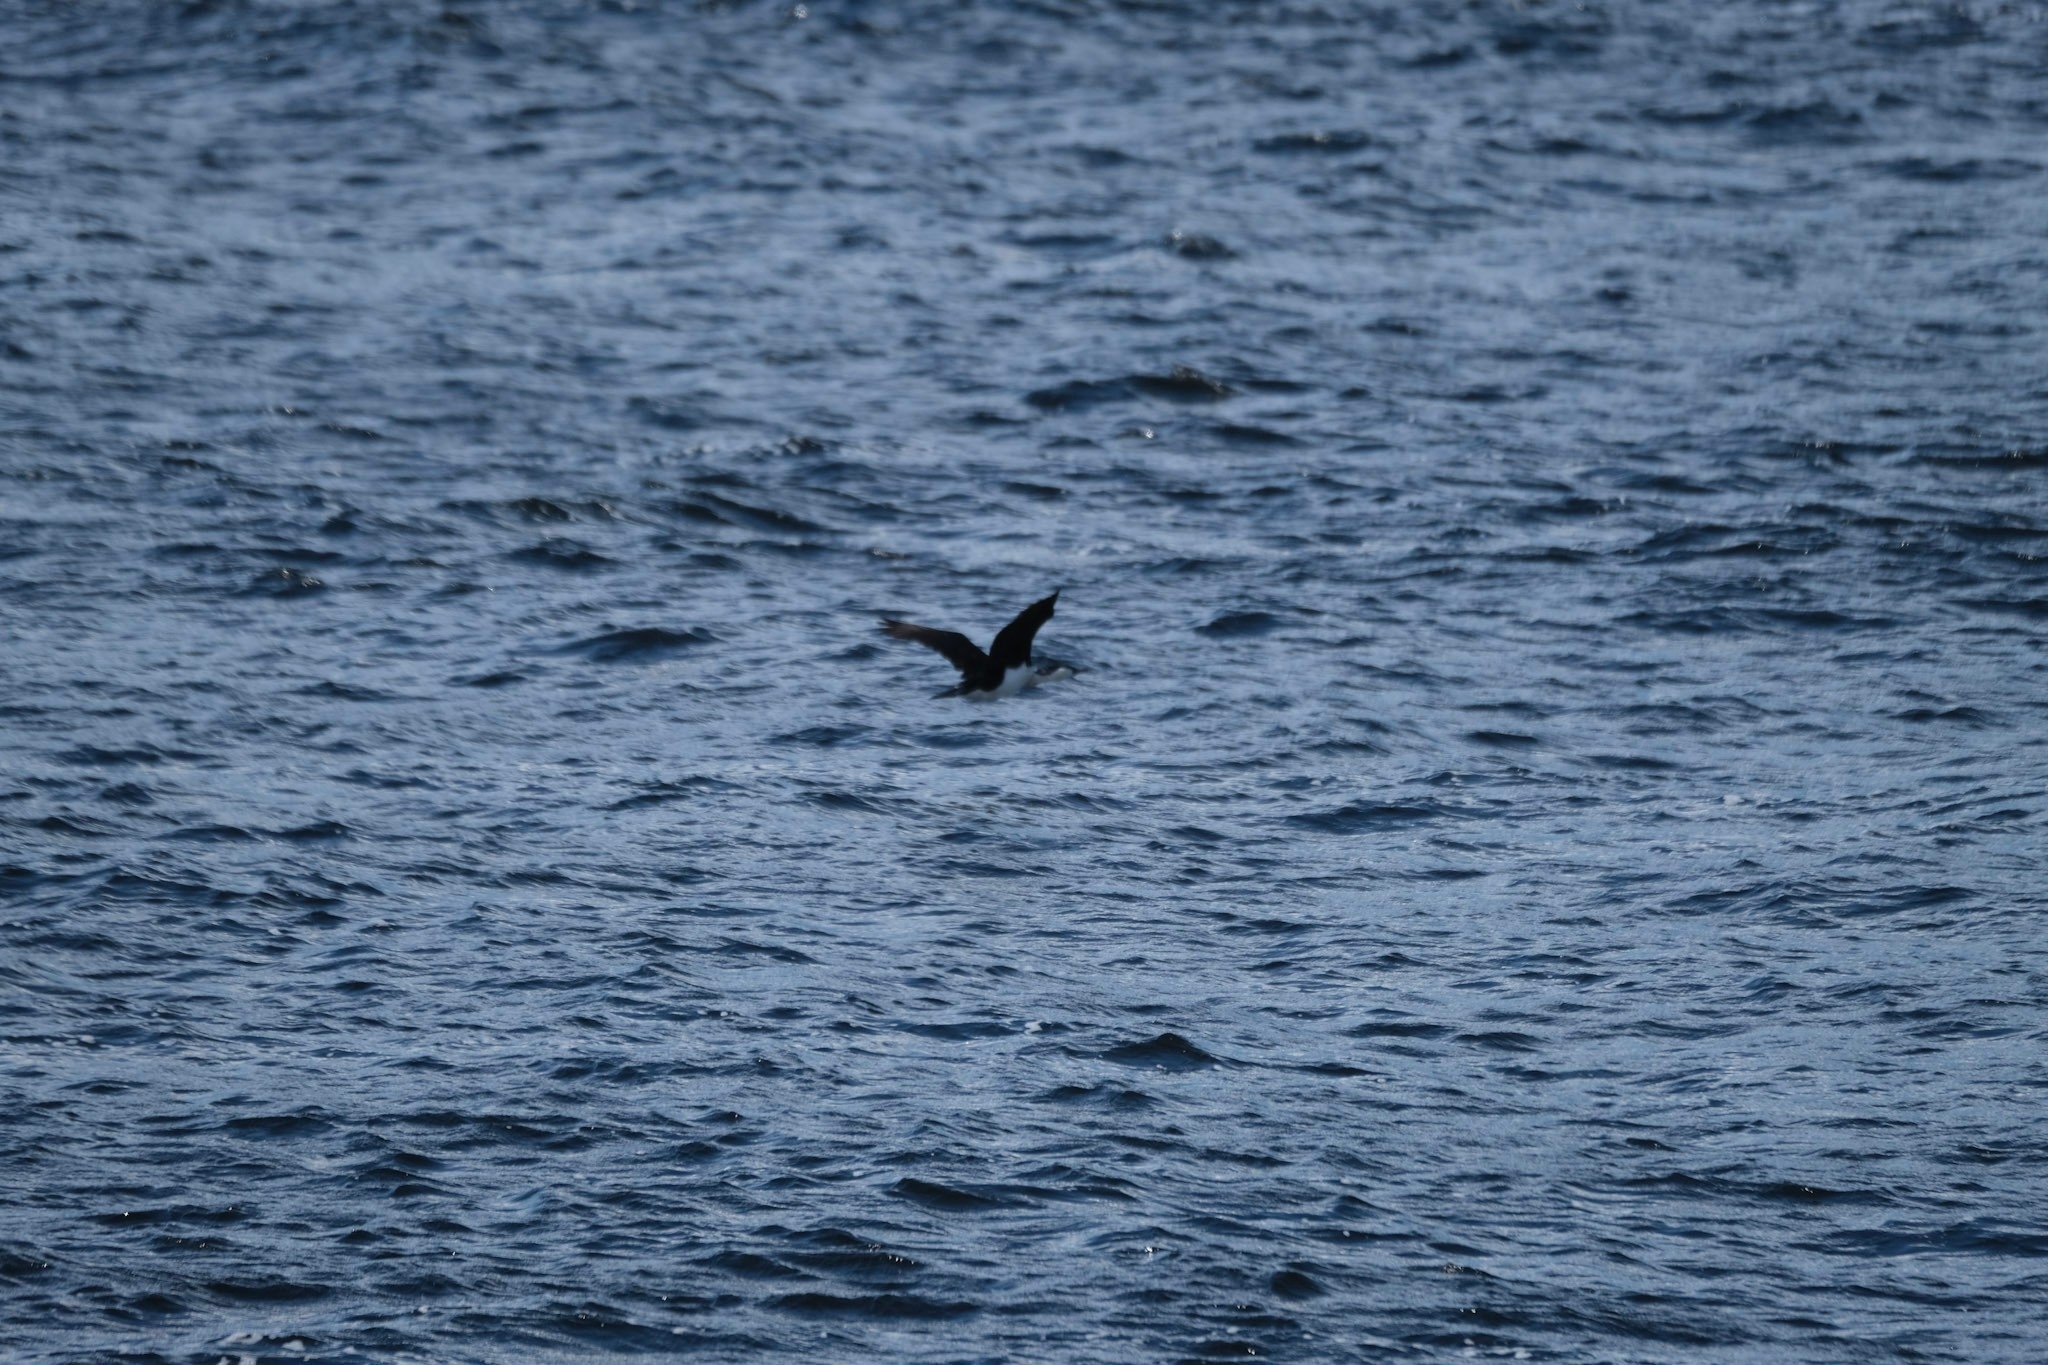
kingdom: Animalia
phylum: Chordata
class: Aves
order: Suliformes
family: Phalacrocoracidae
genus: Phalacrocorax
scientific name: Phalacrocorax fuscescens
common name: Black-faced cormorant
